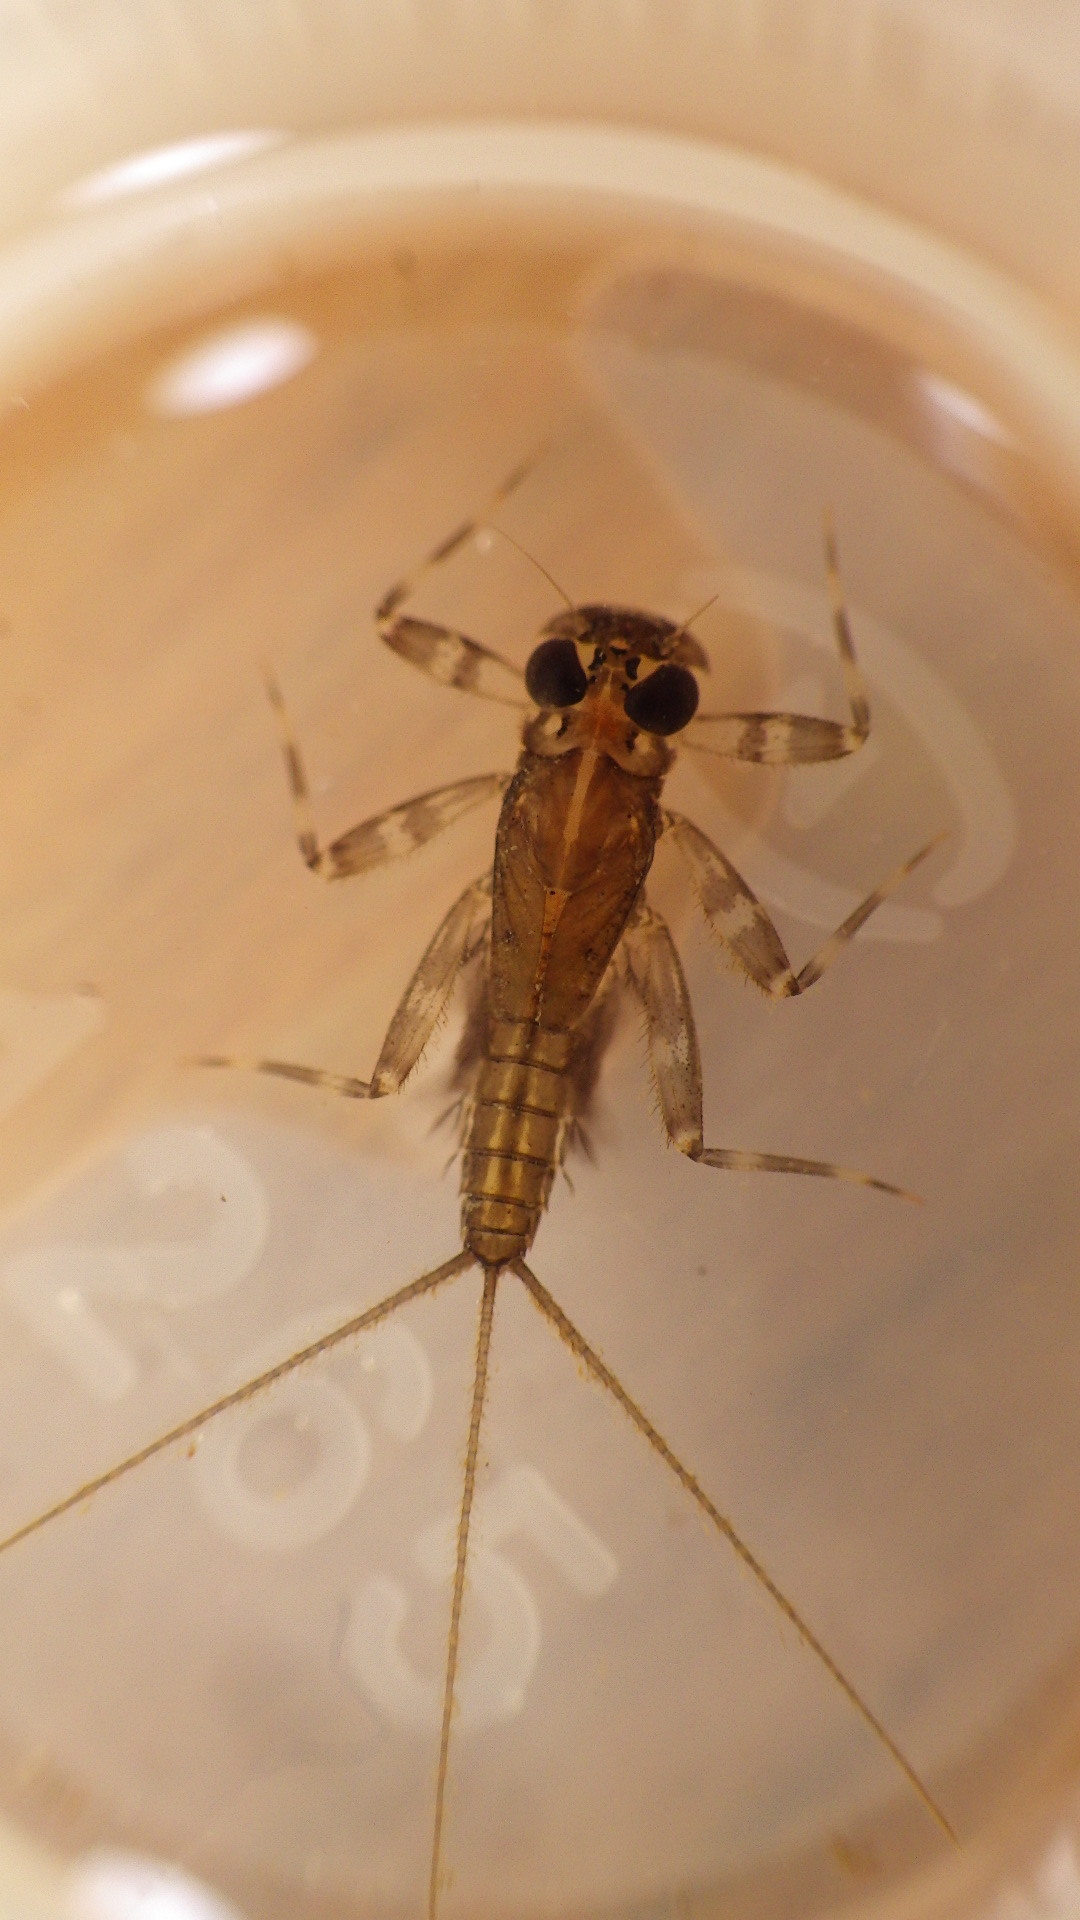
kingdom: Animalia
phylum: Arthropoda
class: Insecta
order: Ephemeroptera
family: Heptageniidae
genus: Stenacron
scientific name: Stenacron interpunctatum
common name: Orange cahill
